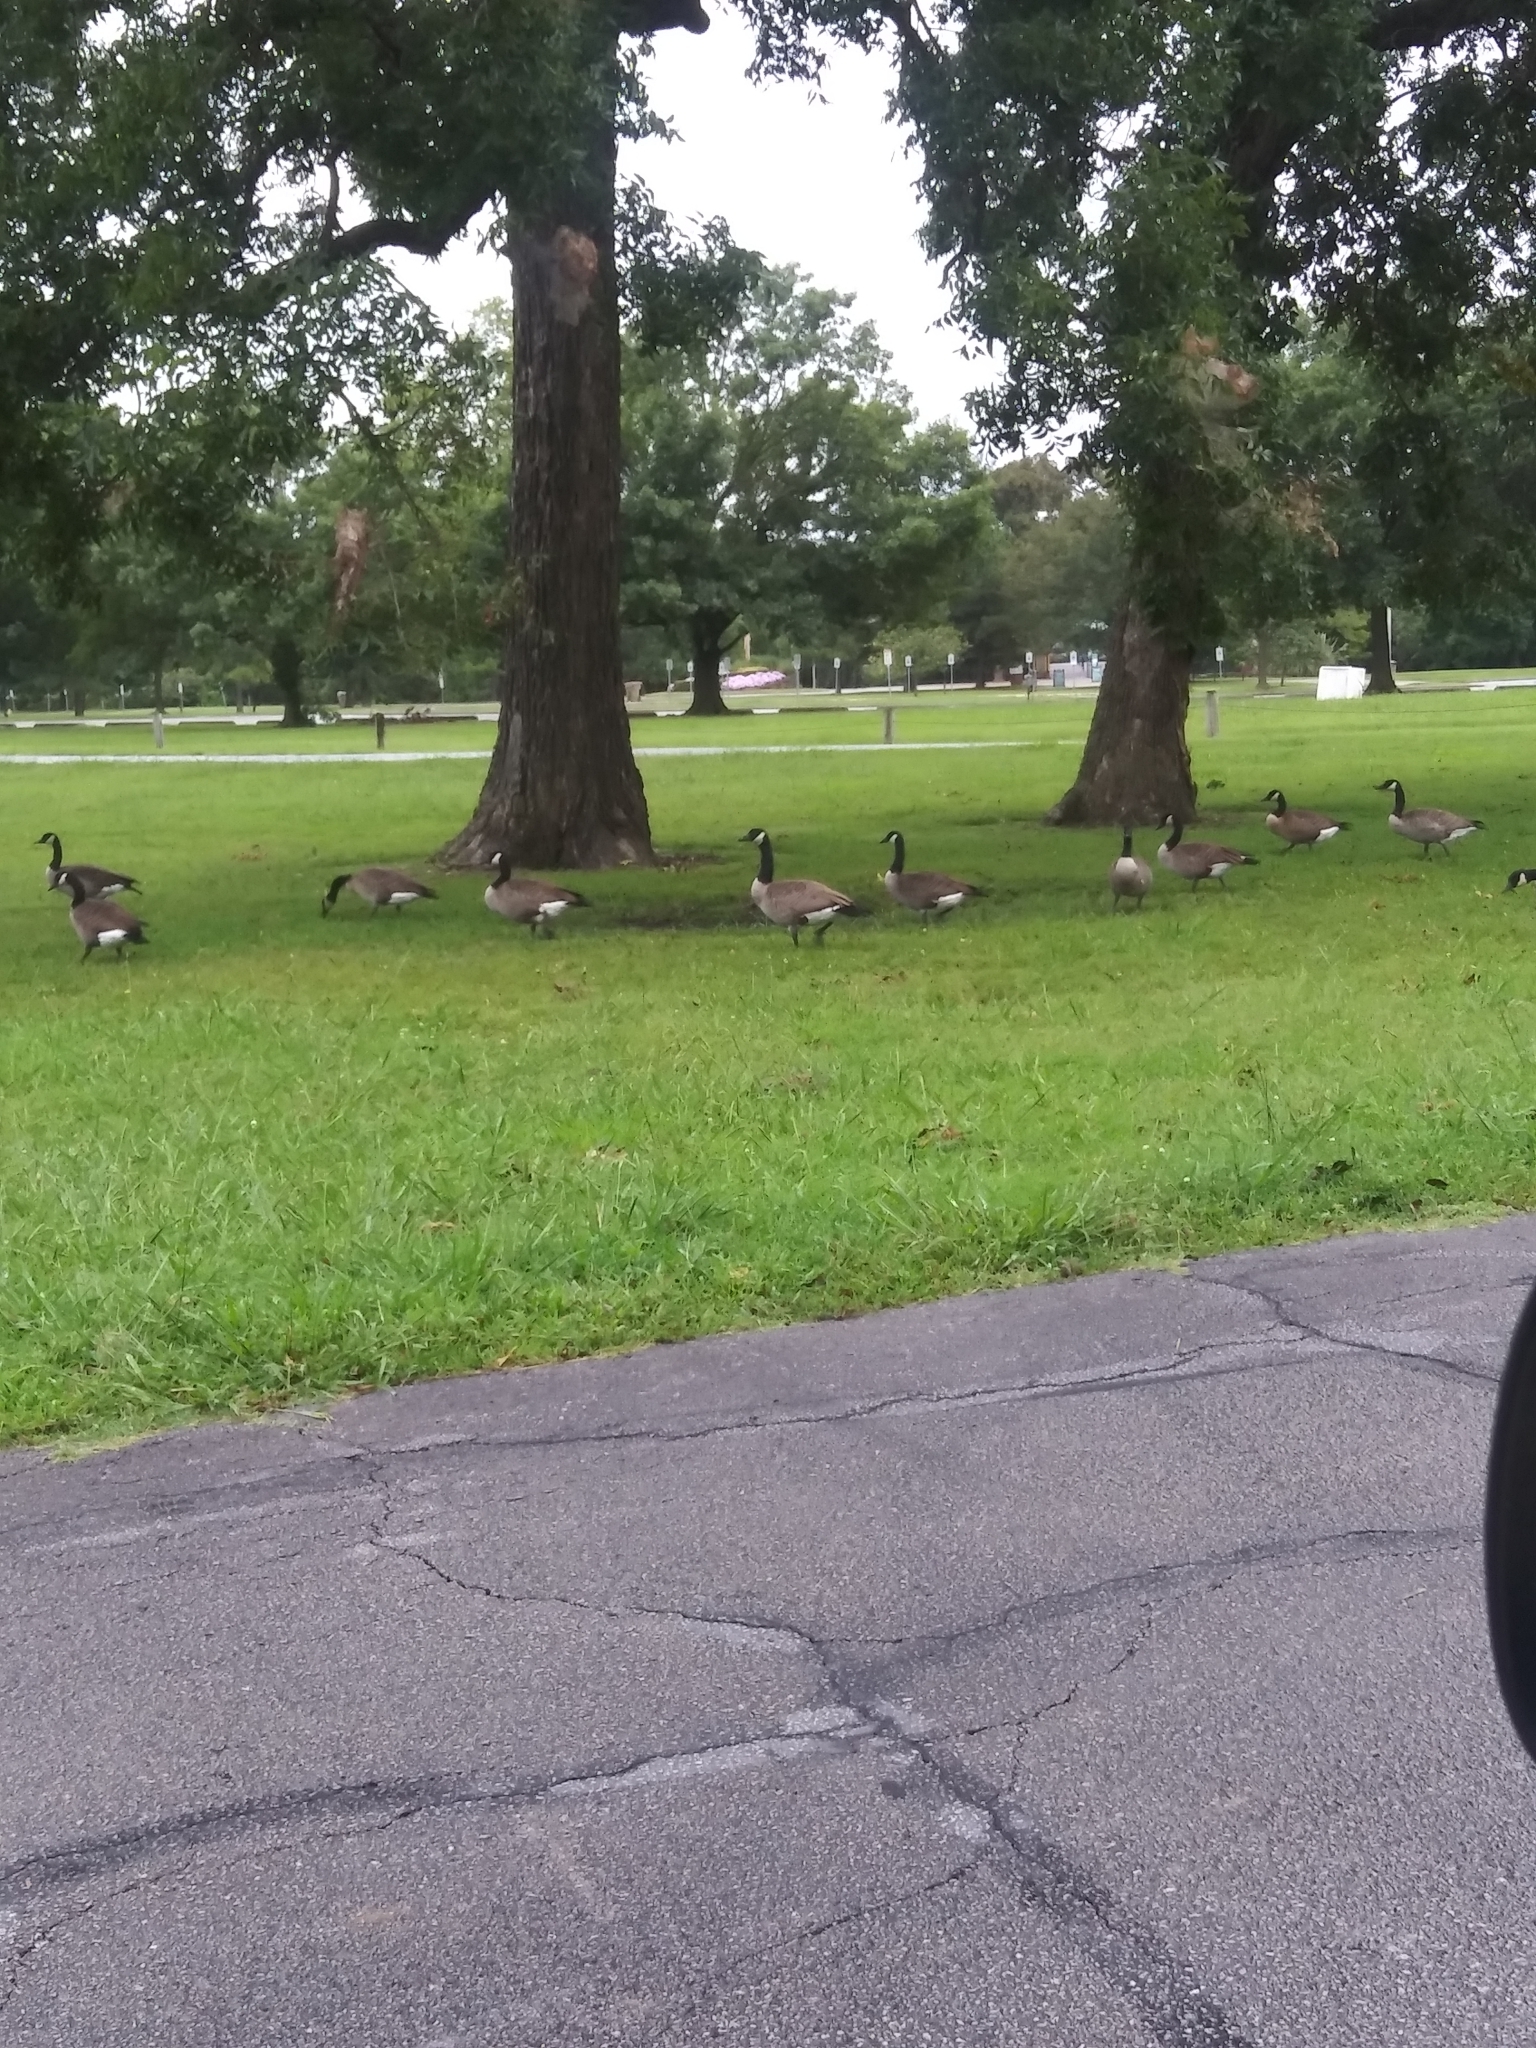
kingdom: Animalia
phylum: Chordata
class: Aves
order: Anseriformes
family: Anatidae
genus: Branta
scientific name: Branta canadensis
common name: Canada goose
